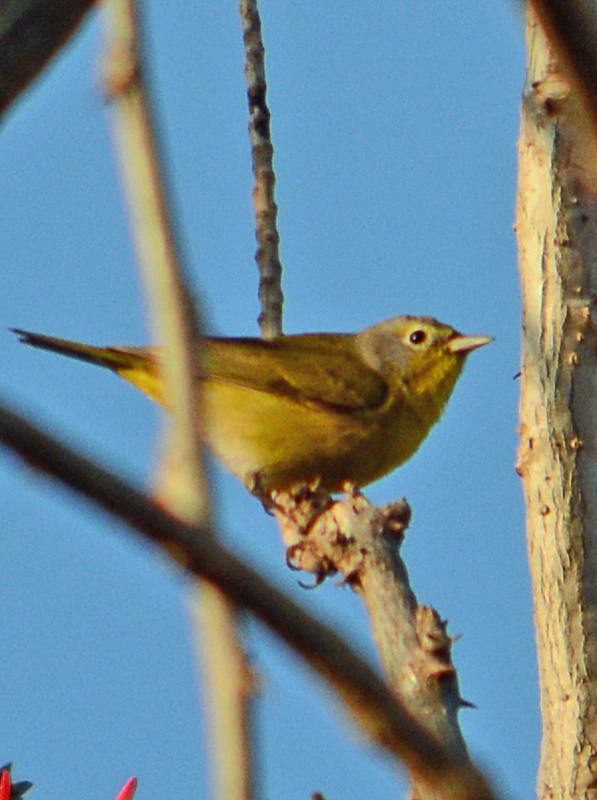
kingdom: Animalia
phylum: Chordata
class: Aves
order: Passeriformes
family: Parulidae
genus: Leiothlypis
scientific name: Leiothlypis ruficapilla
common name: Nashville warbler
